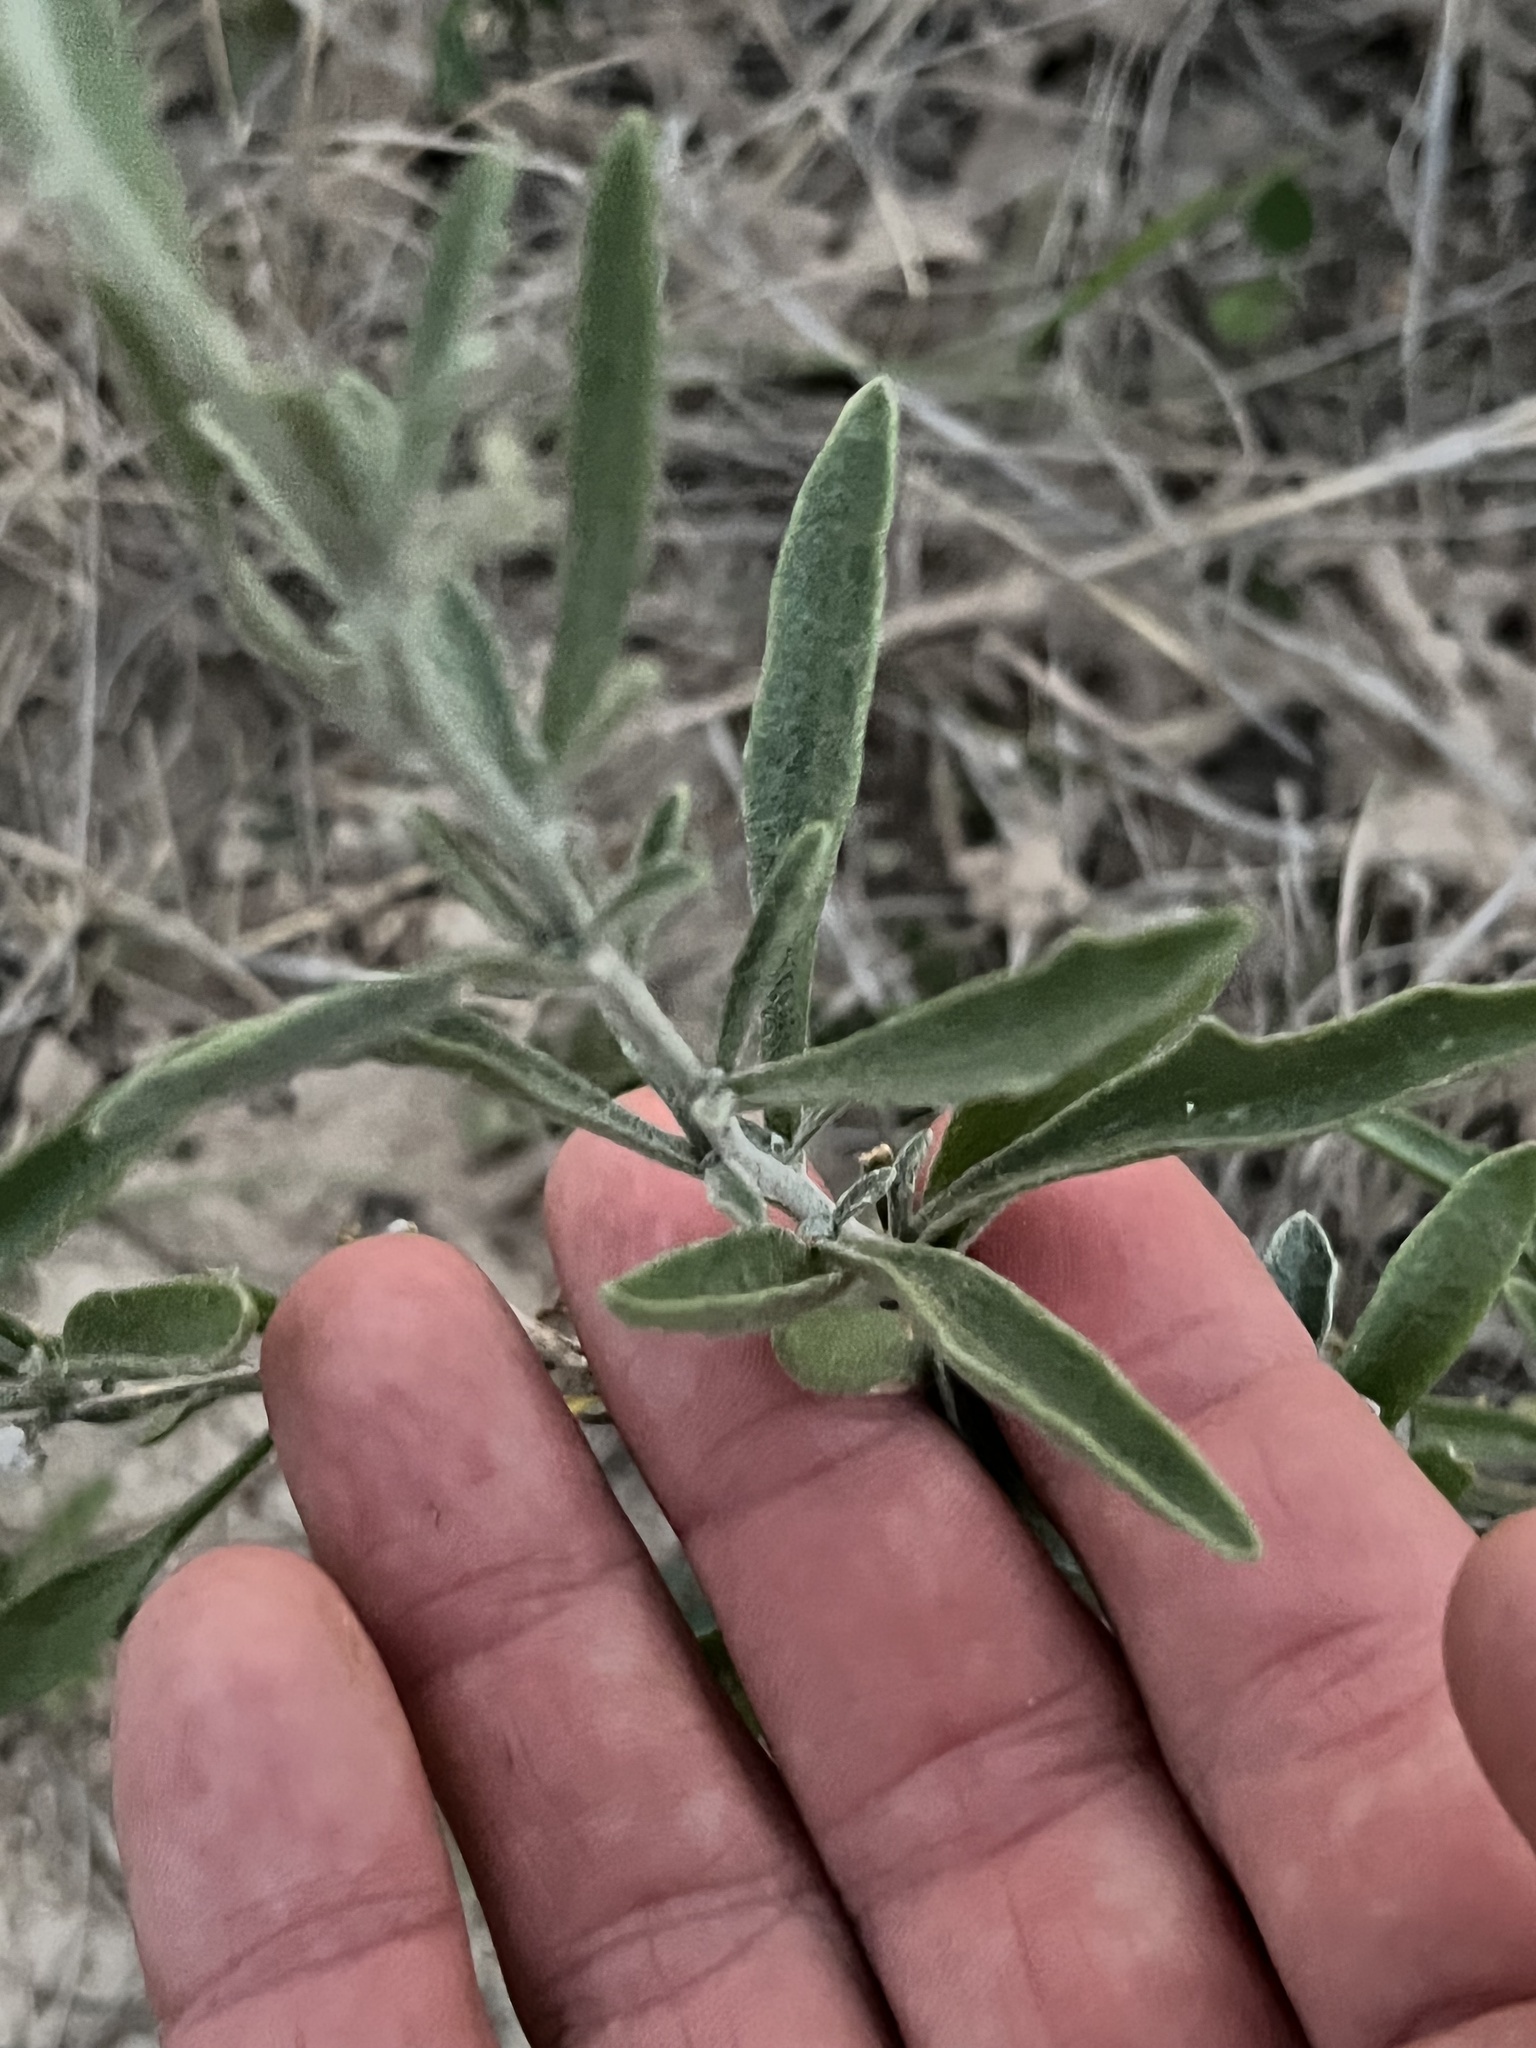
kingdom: Plantae
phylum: Tracheophyta
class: Magnoliopsida
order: Asterales
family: Asteraceae
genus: Psilostrophe
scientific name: Psilostrophe tagetina
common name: Marigold paper-flower
